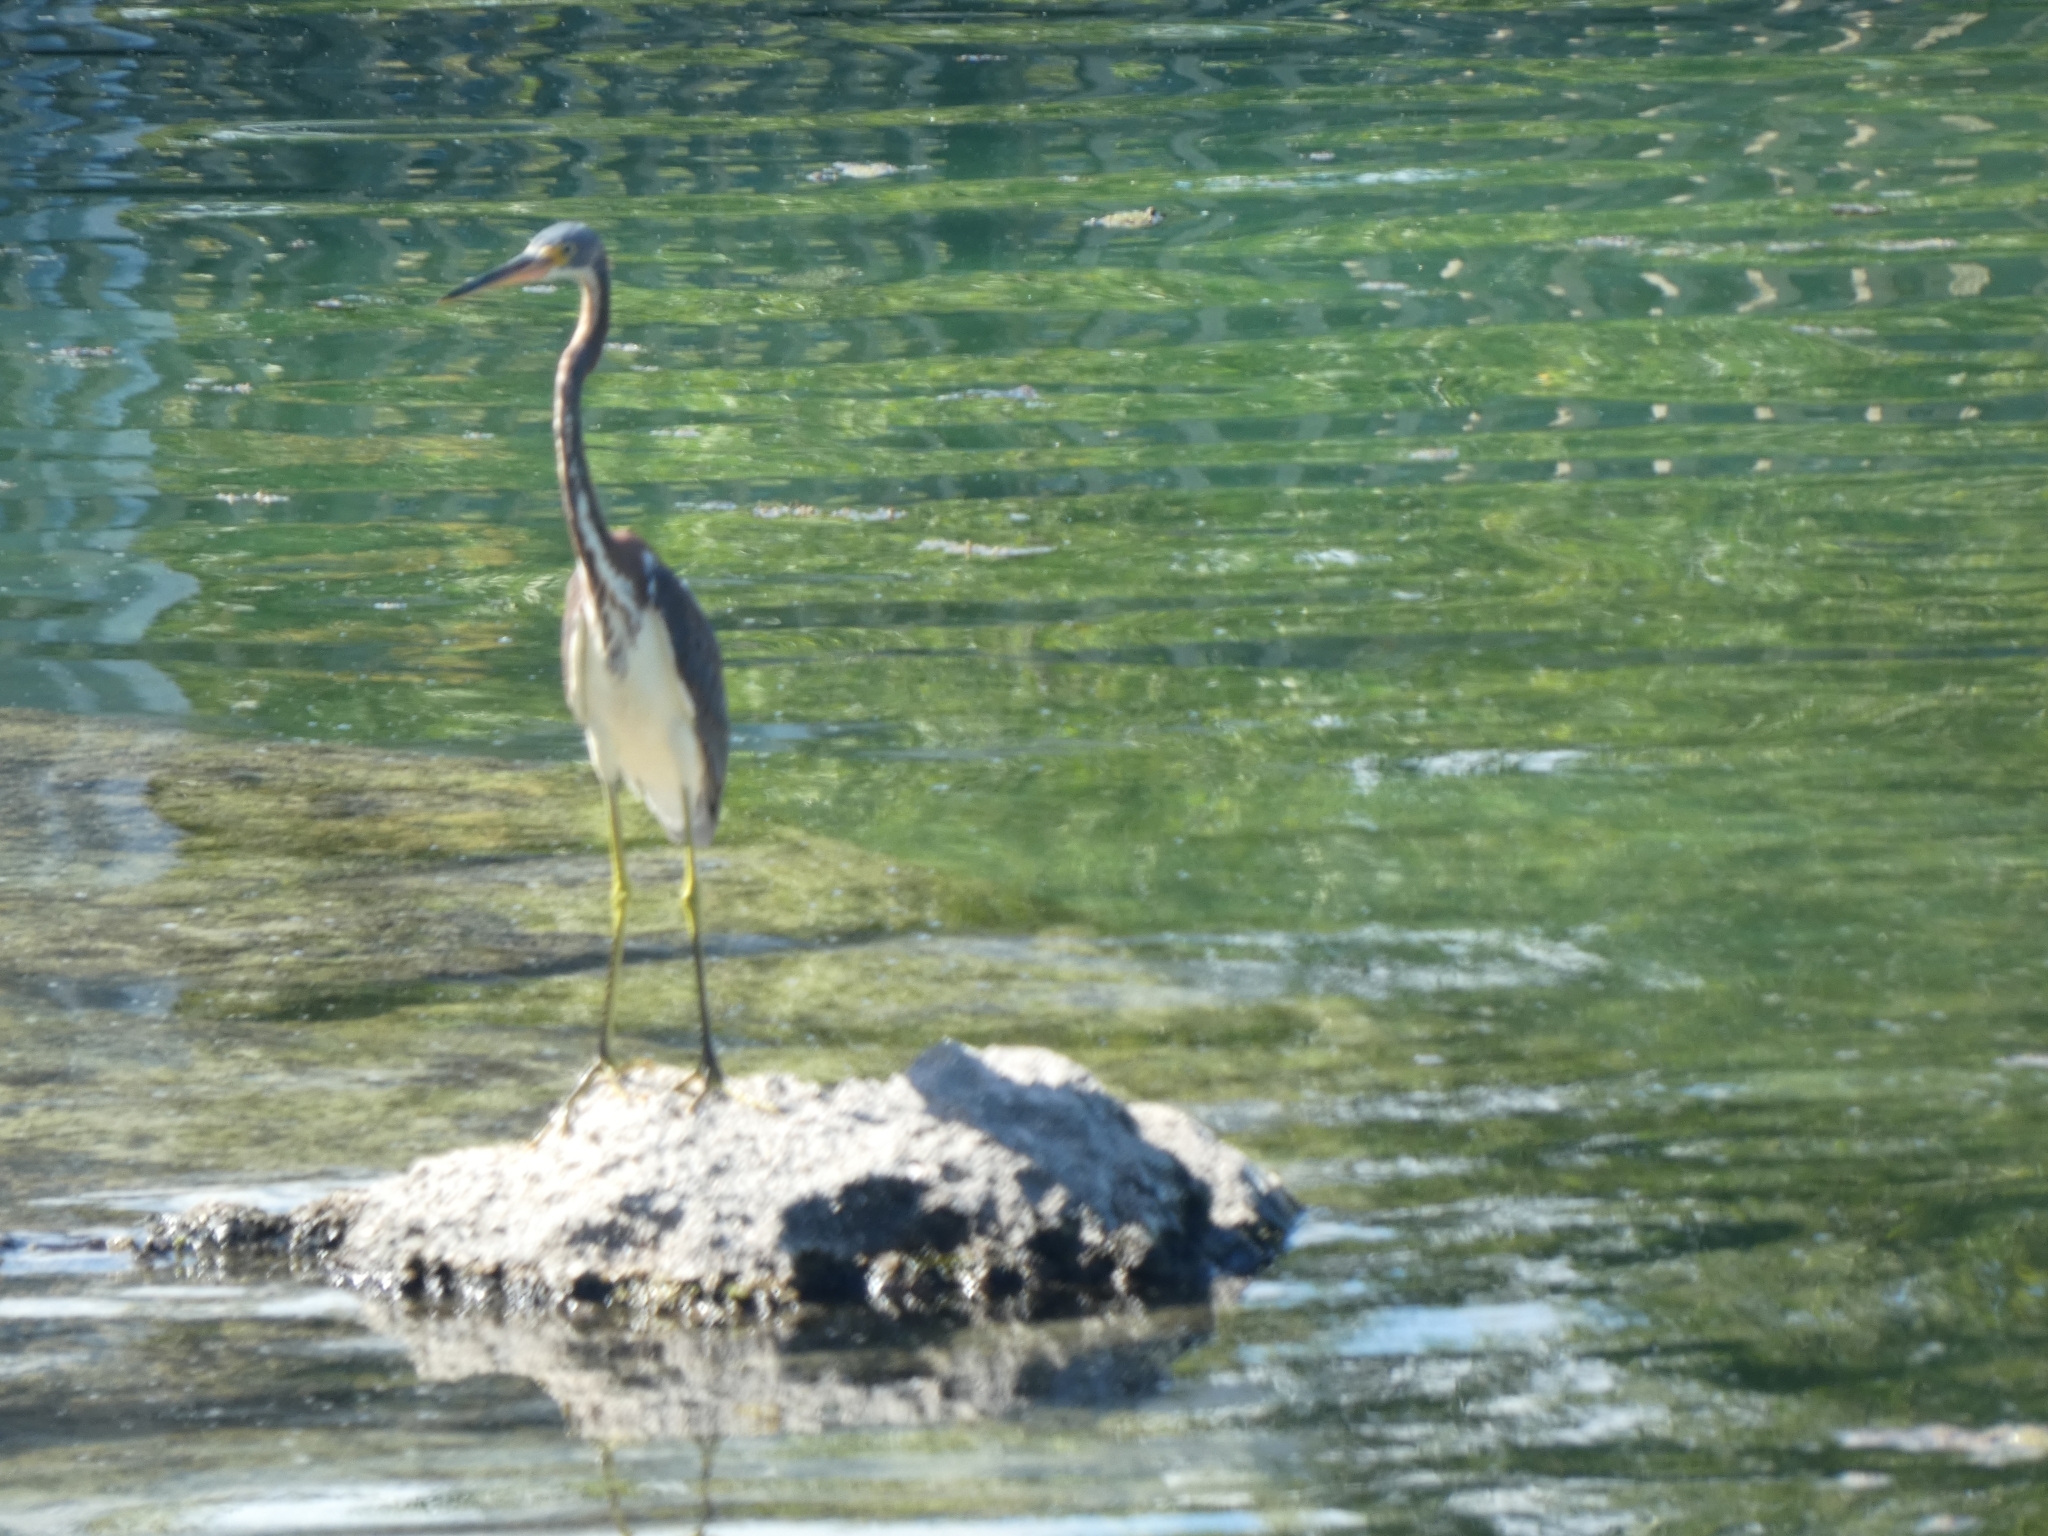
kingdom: Animalia
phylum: Chordata
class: Aves
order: Pelecaniformes
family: Ardeidae
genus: Egretta
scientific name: Egretta tricolor
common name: Tricolored heron
